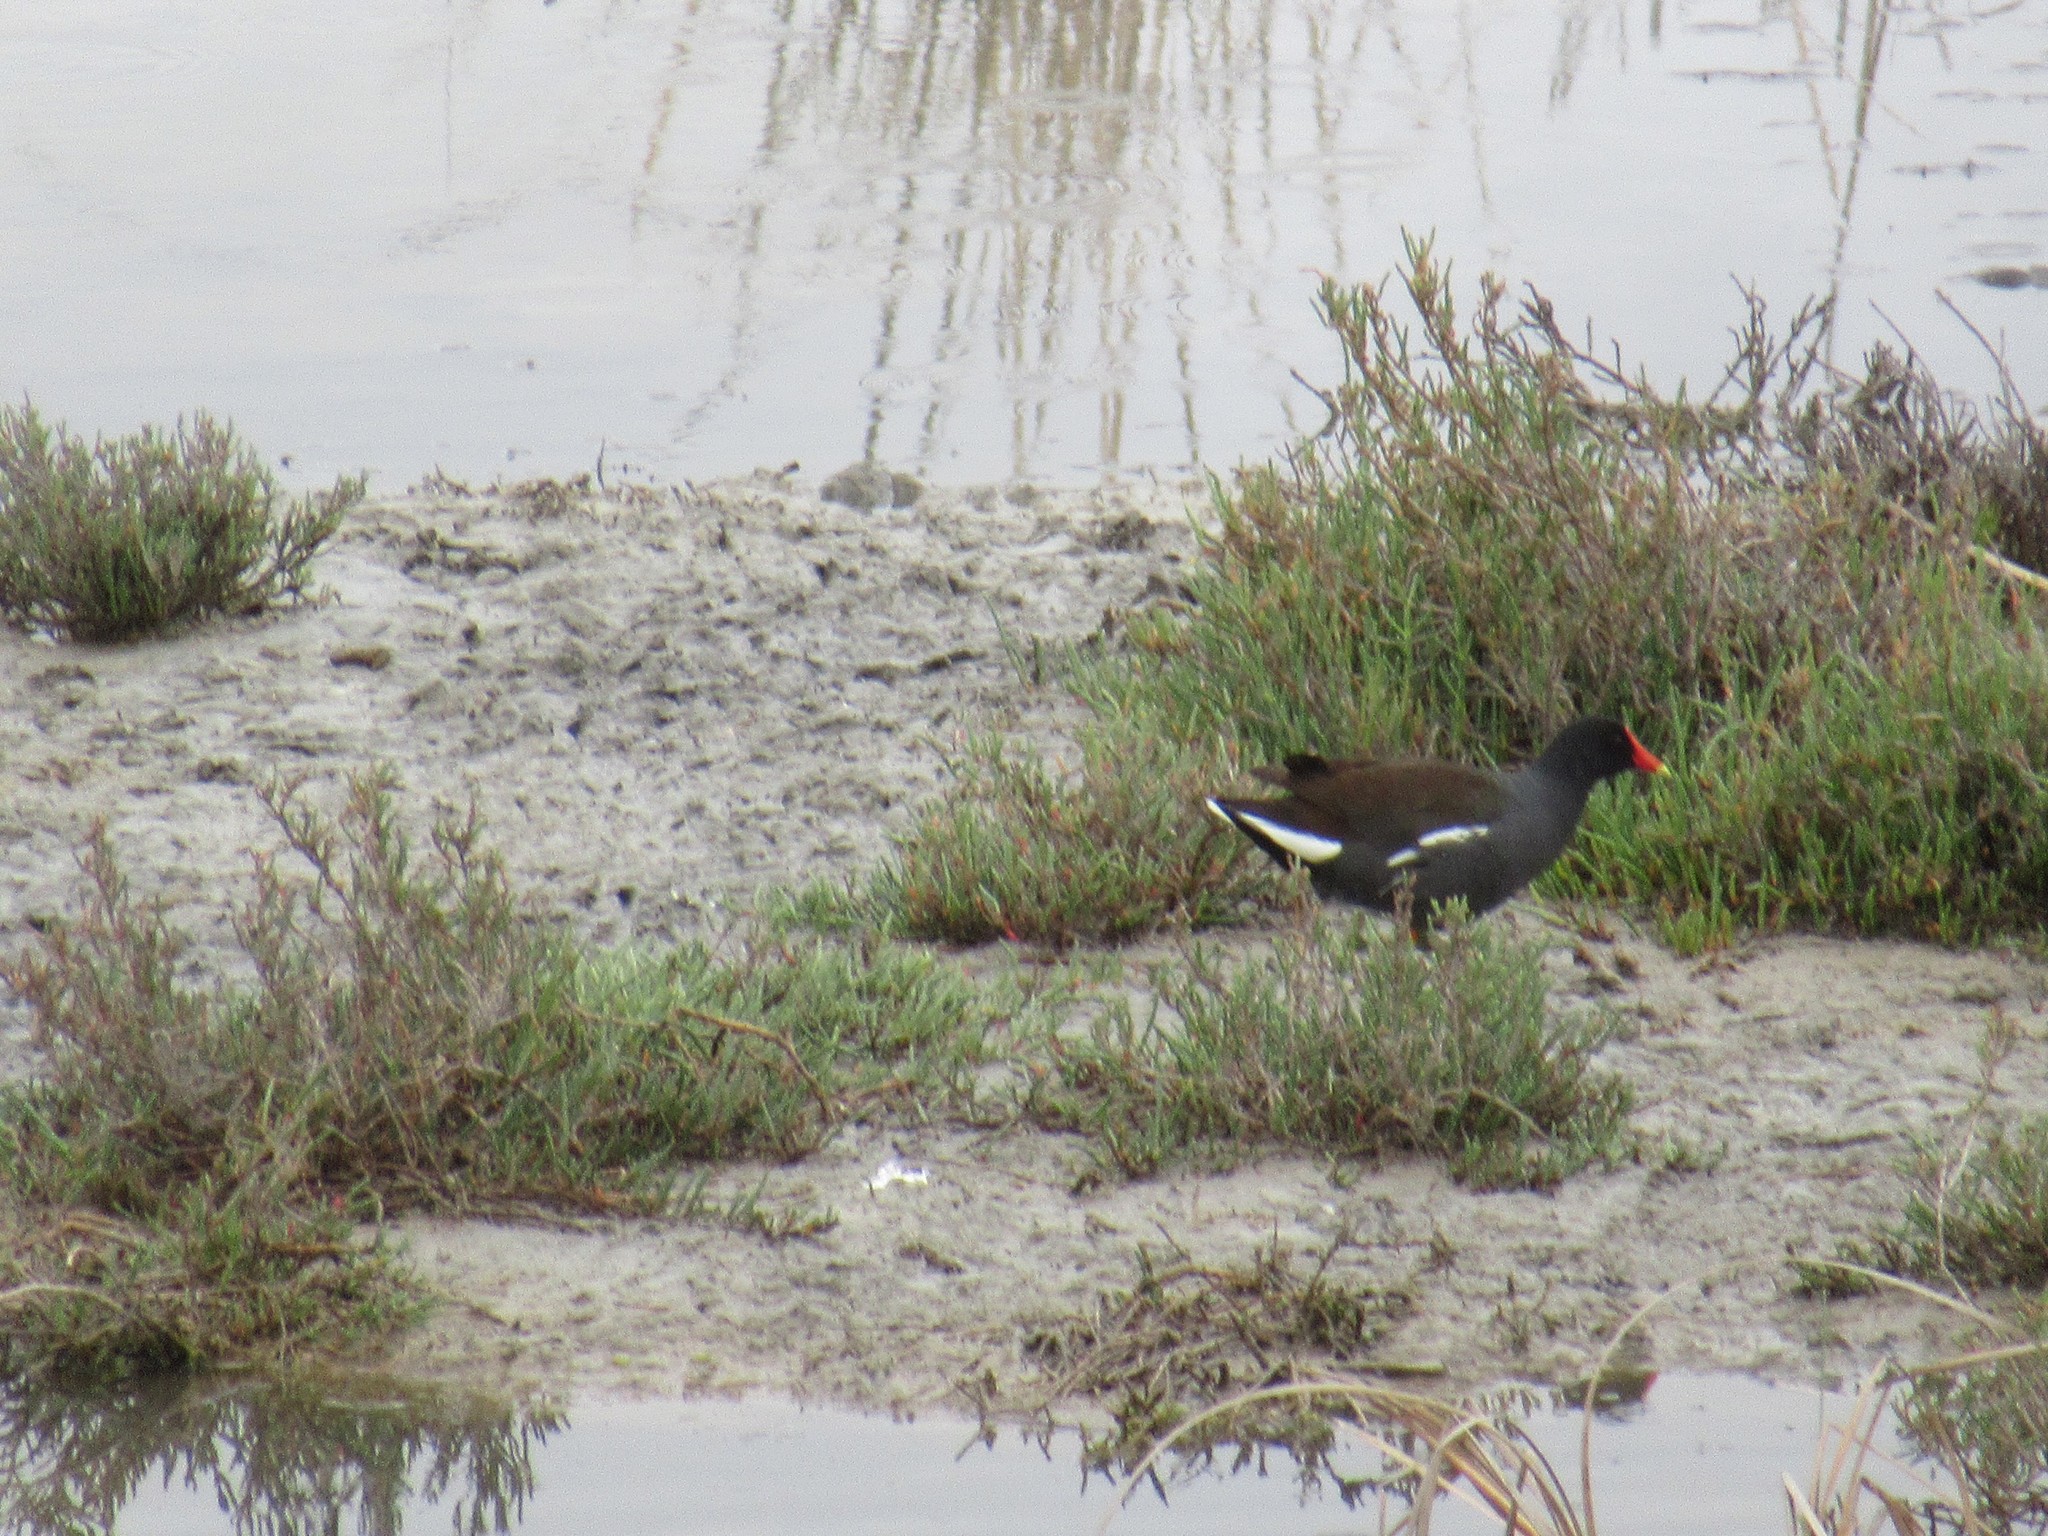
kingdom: Animalia
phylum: Chordata
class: Aves
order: Gruiformes
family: Rallidae
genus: Gallinula
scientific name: Gallinula chloropus
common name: Common moorhen
